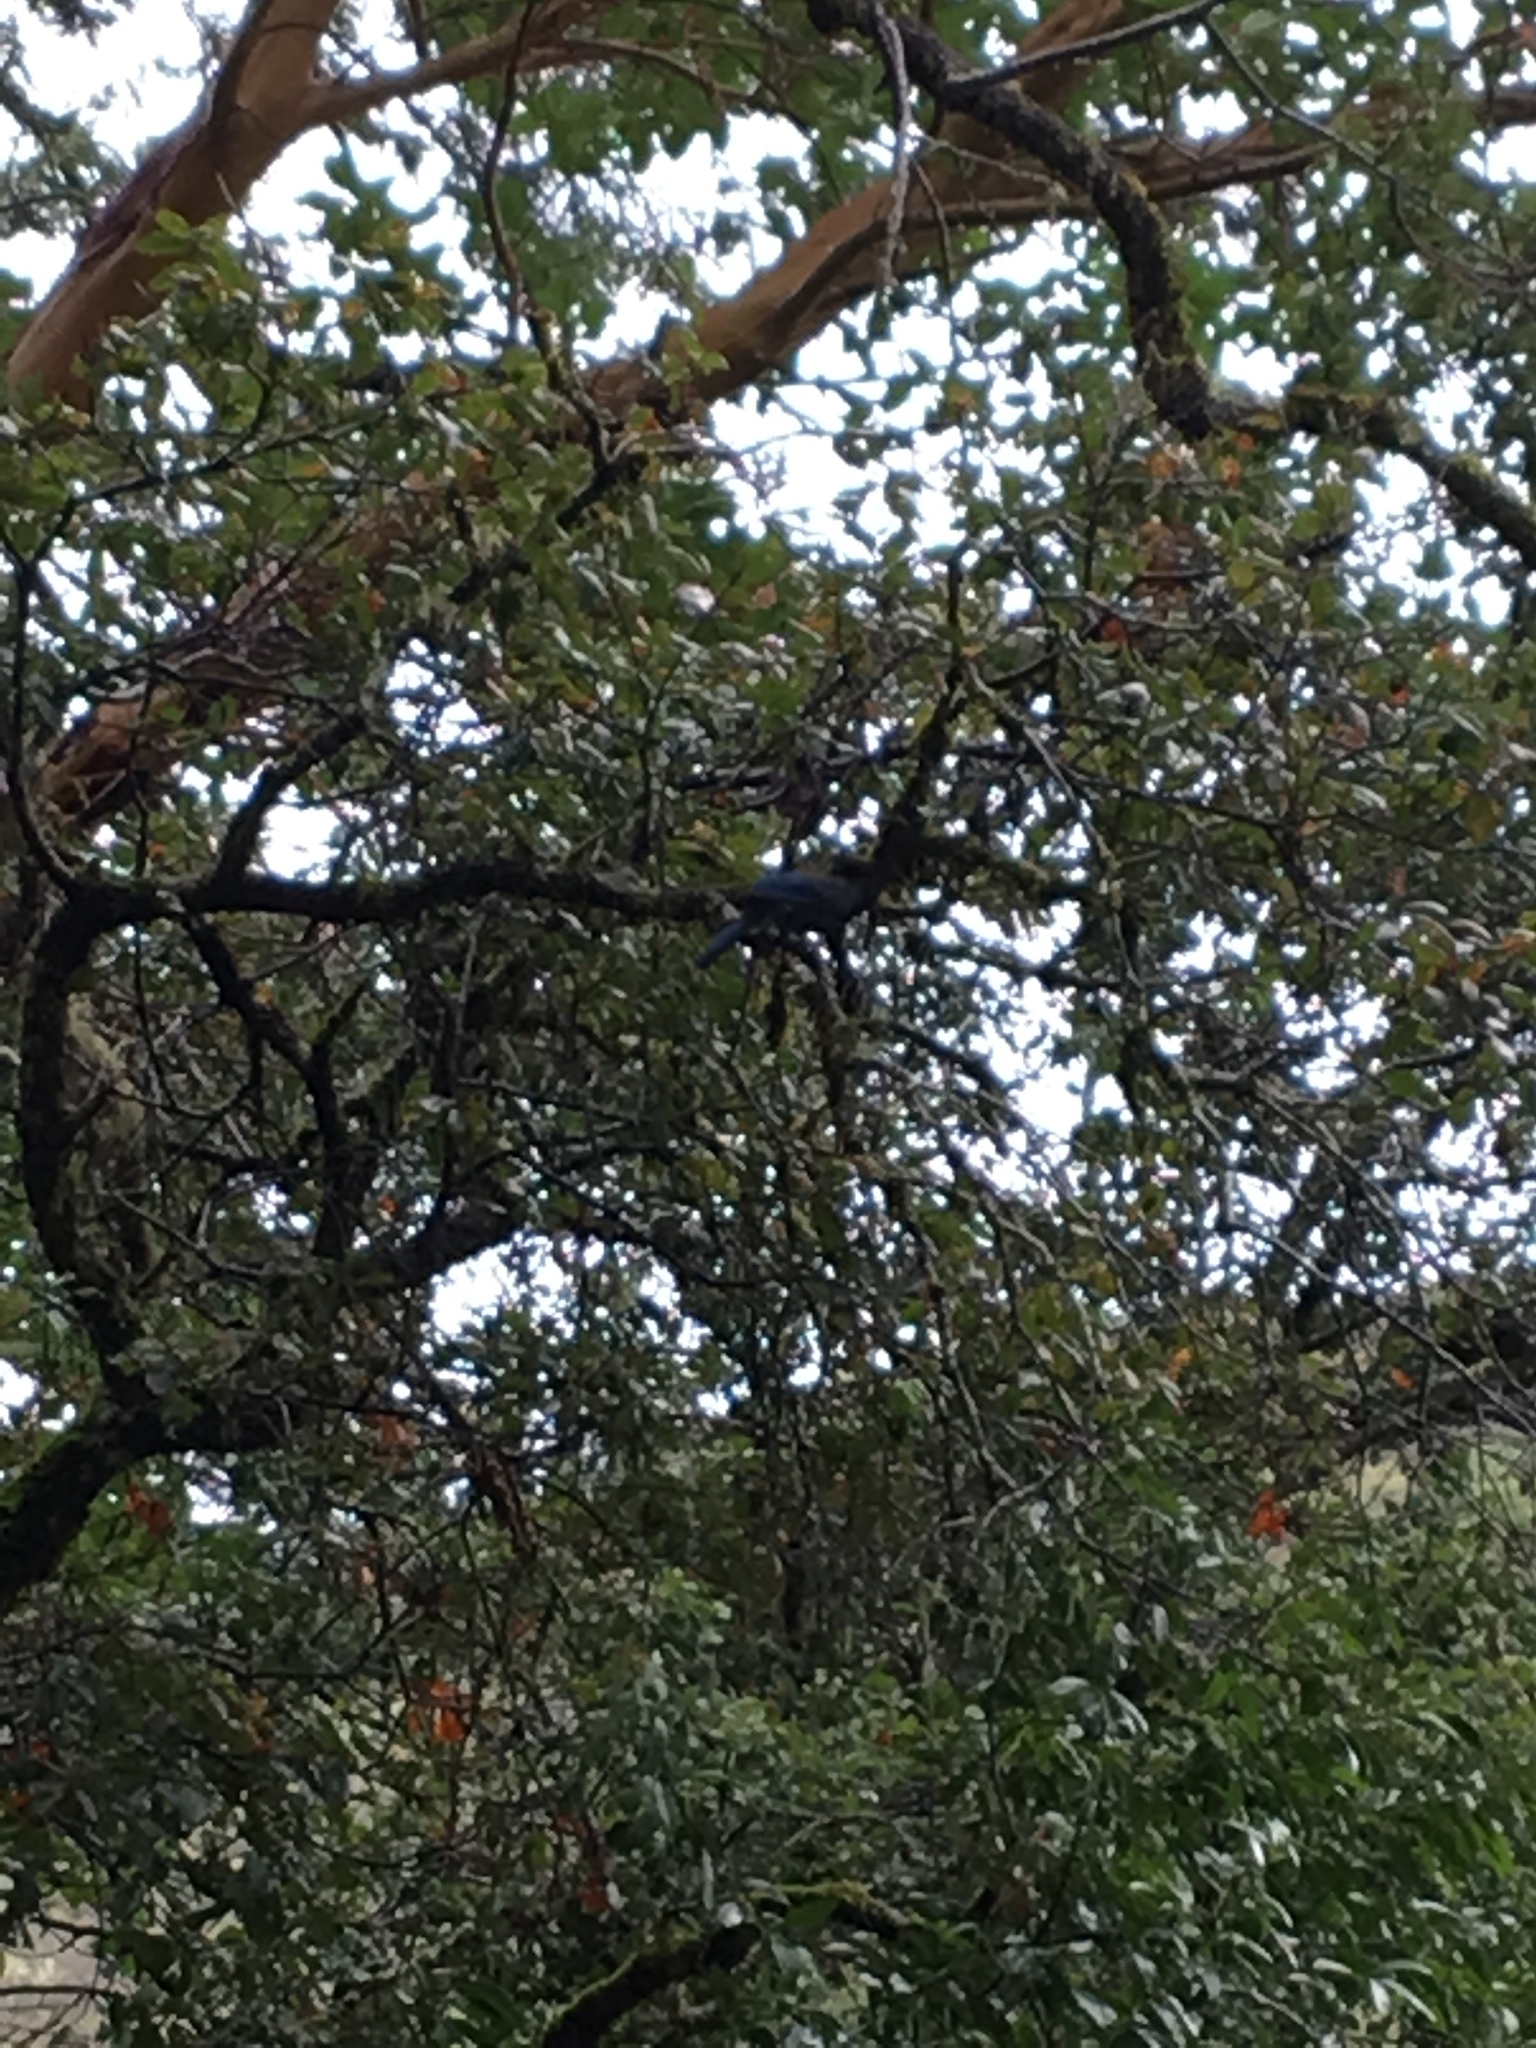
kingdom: Animalia
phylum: Chordata
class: Aves
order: Passeriformes
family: Corvidae
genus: Cyanocitta
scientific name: Cyanocitta stelleri
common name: Steller's jay
